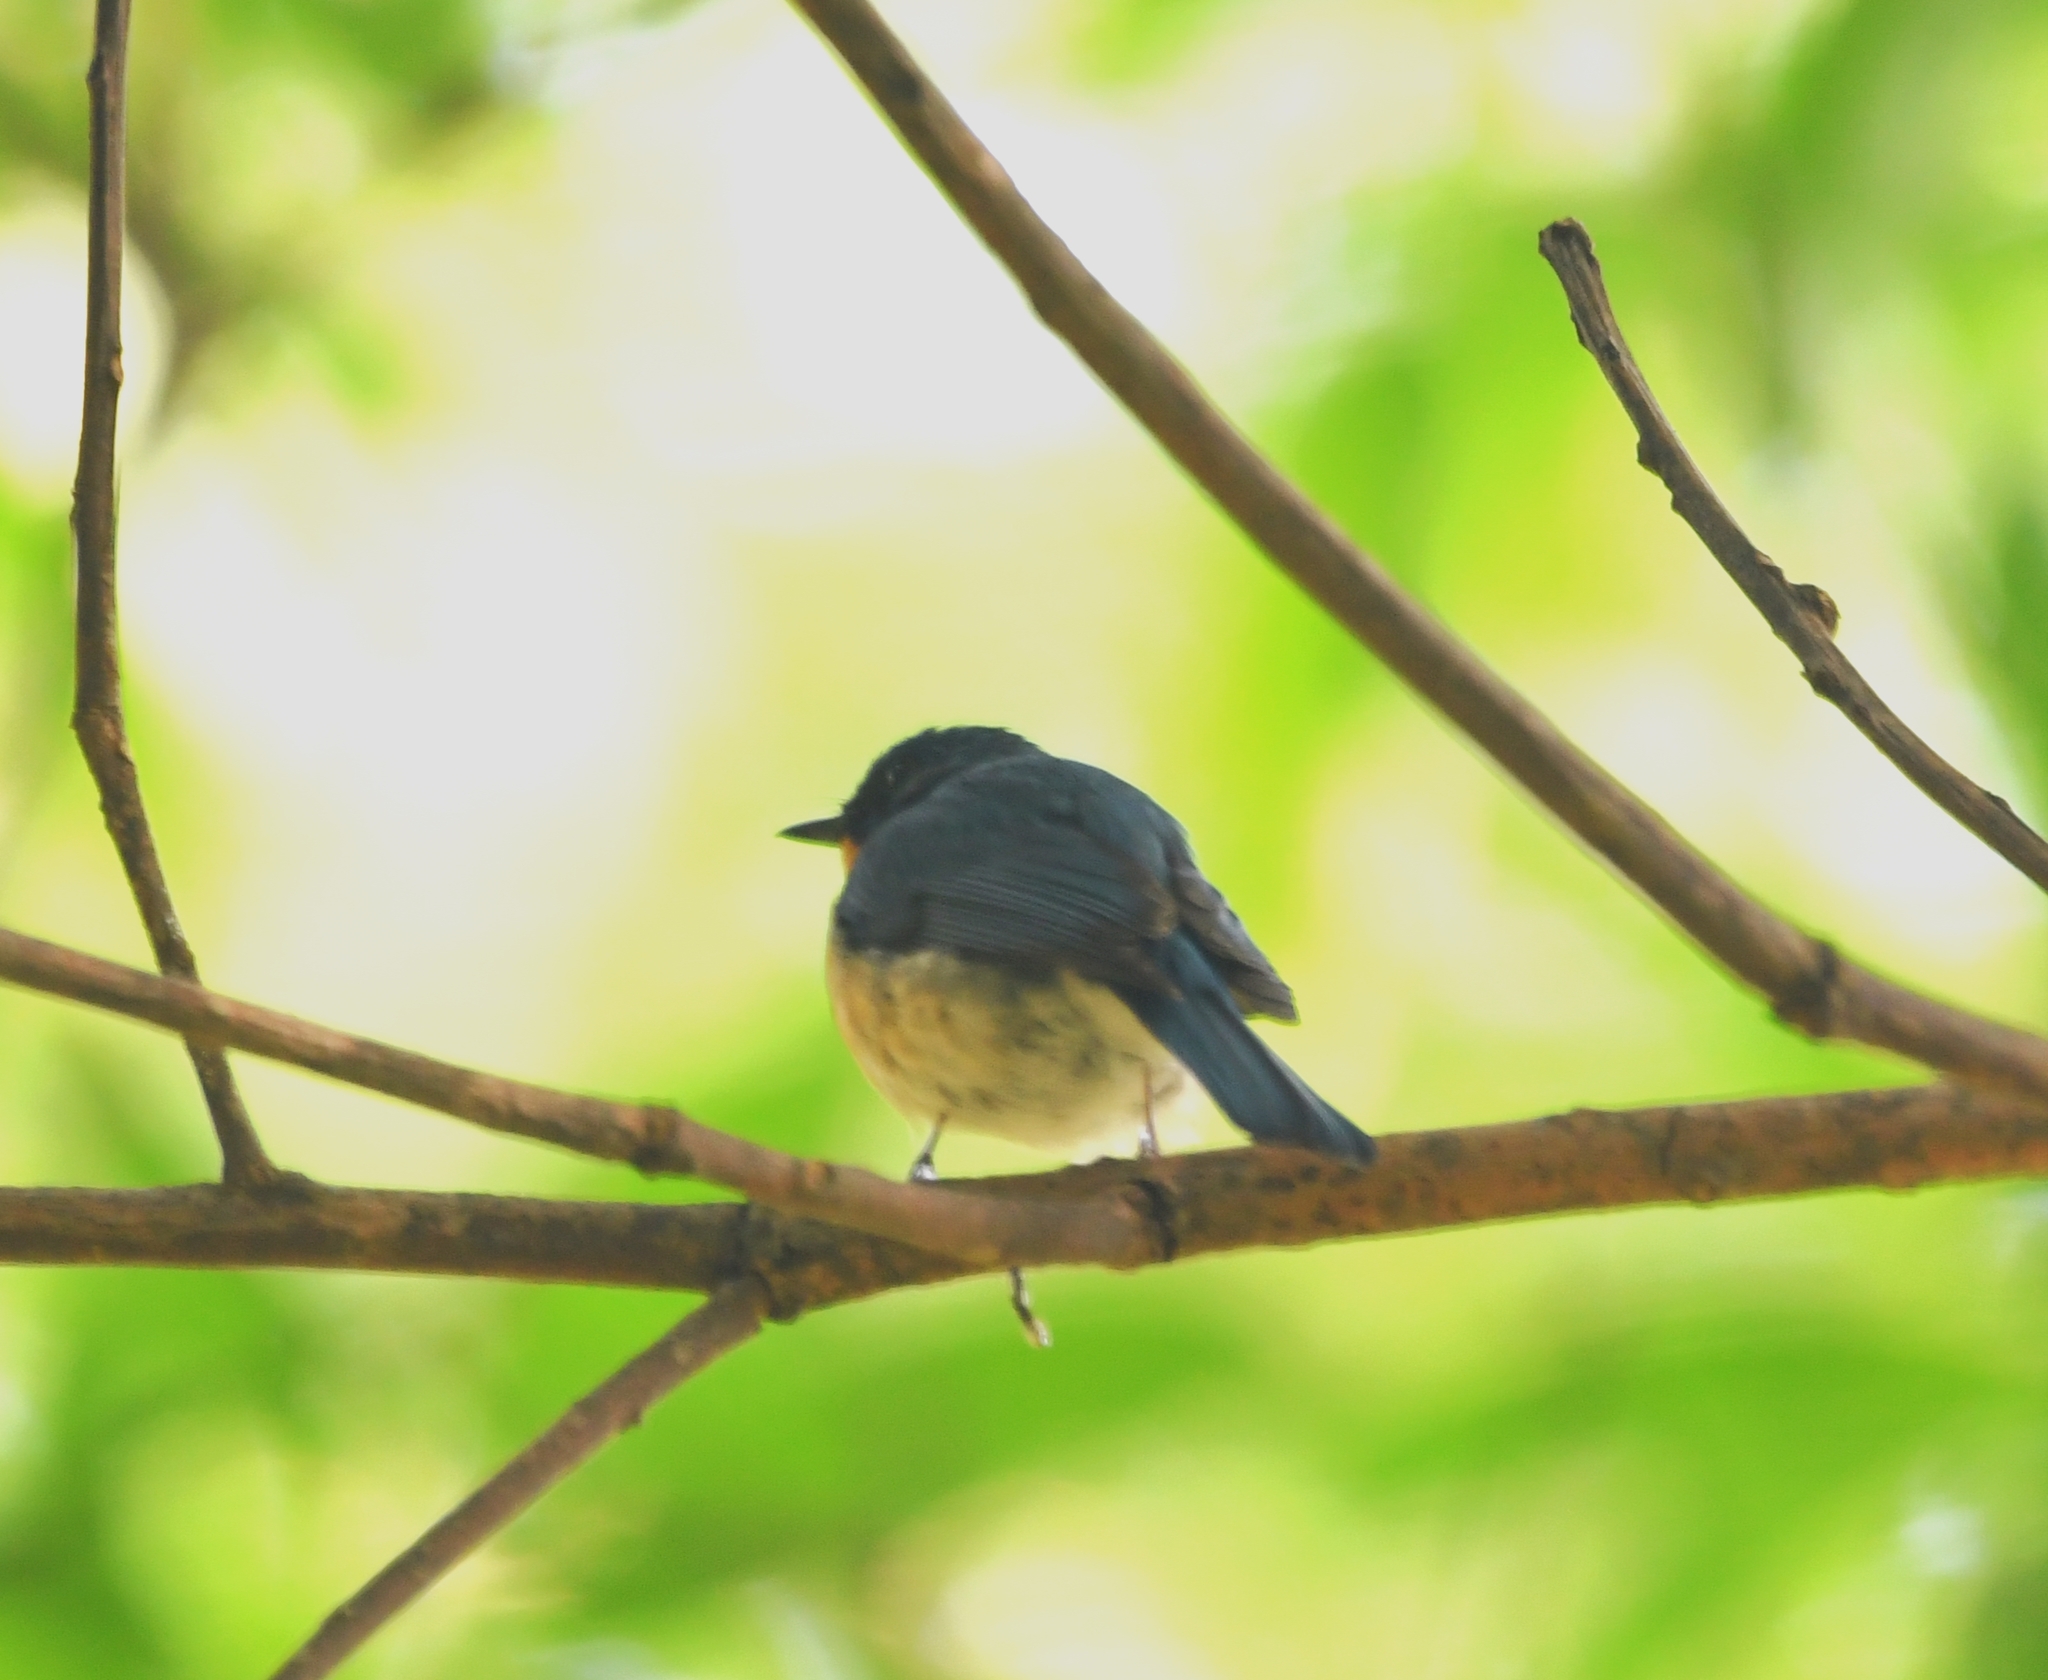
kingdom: Animalia
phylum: Chordata
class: Aves
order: Passeriformes
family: Muscicapidae
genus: Cyornis
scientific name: Cyornis tickelliae
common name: Tickell's blue flycatcher
